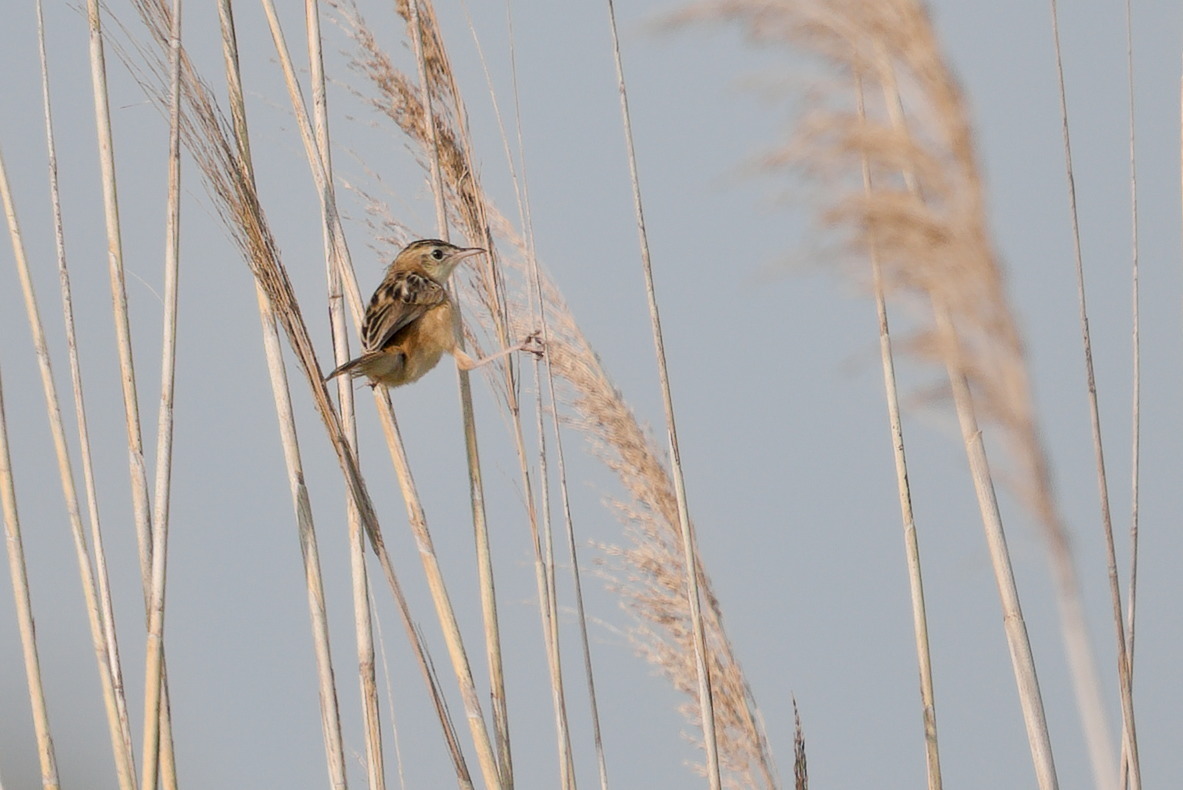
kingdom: Animalia
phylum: Chordata
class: Aves
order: Passeriformes
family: Cisticolidae
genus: Cisticola
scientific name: Cisticola juncidis
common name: Zitting cisticola
